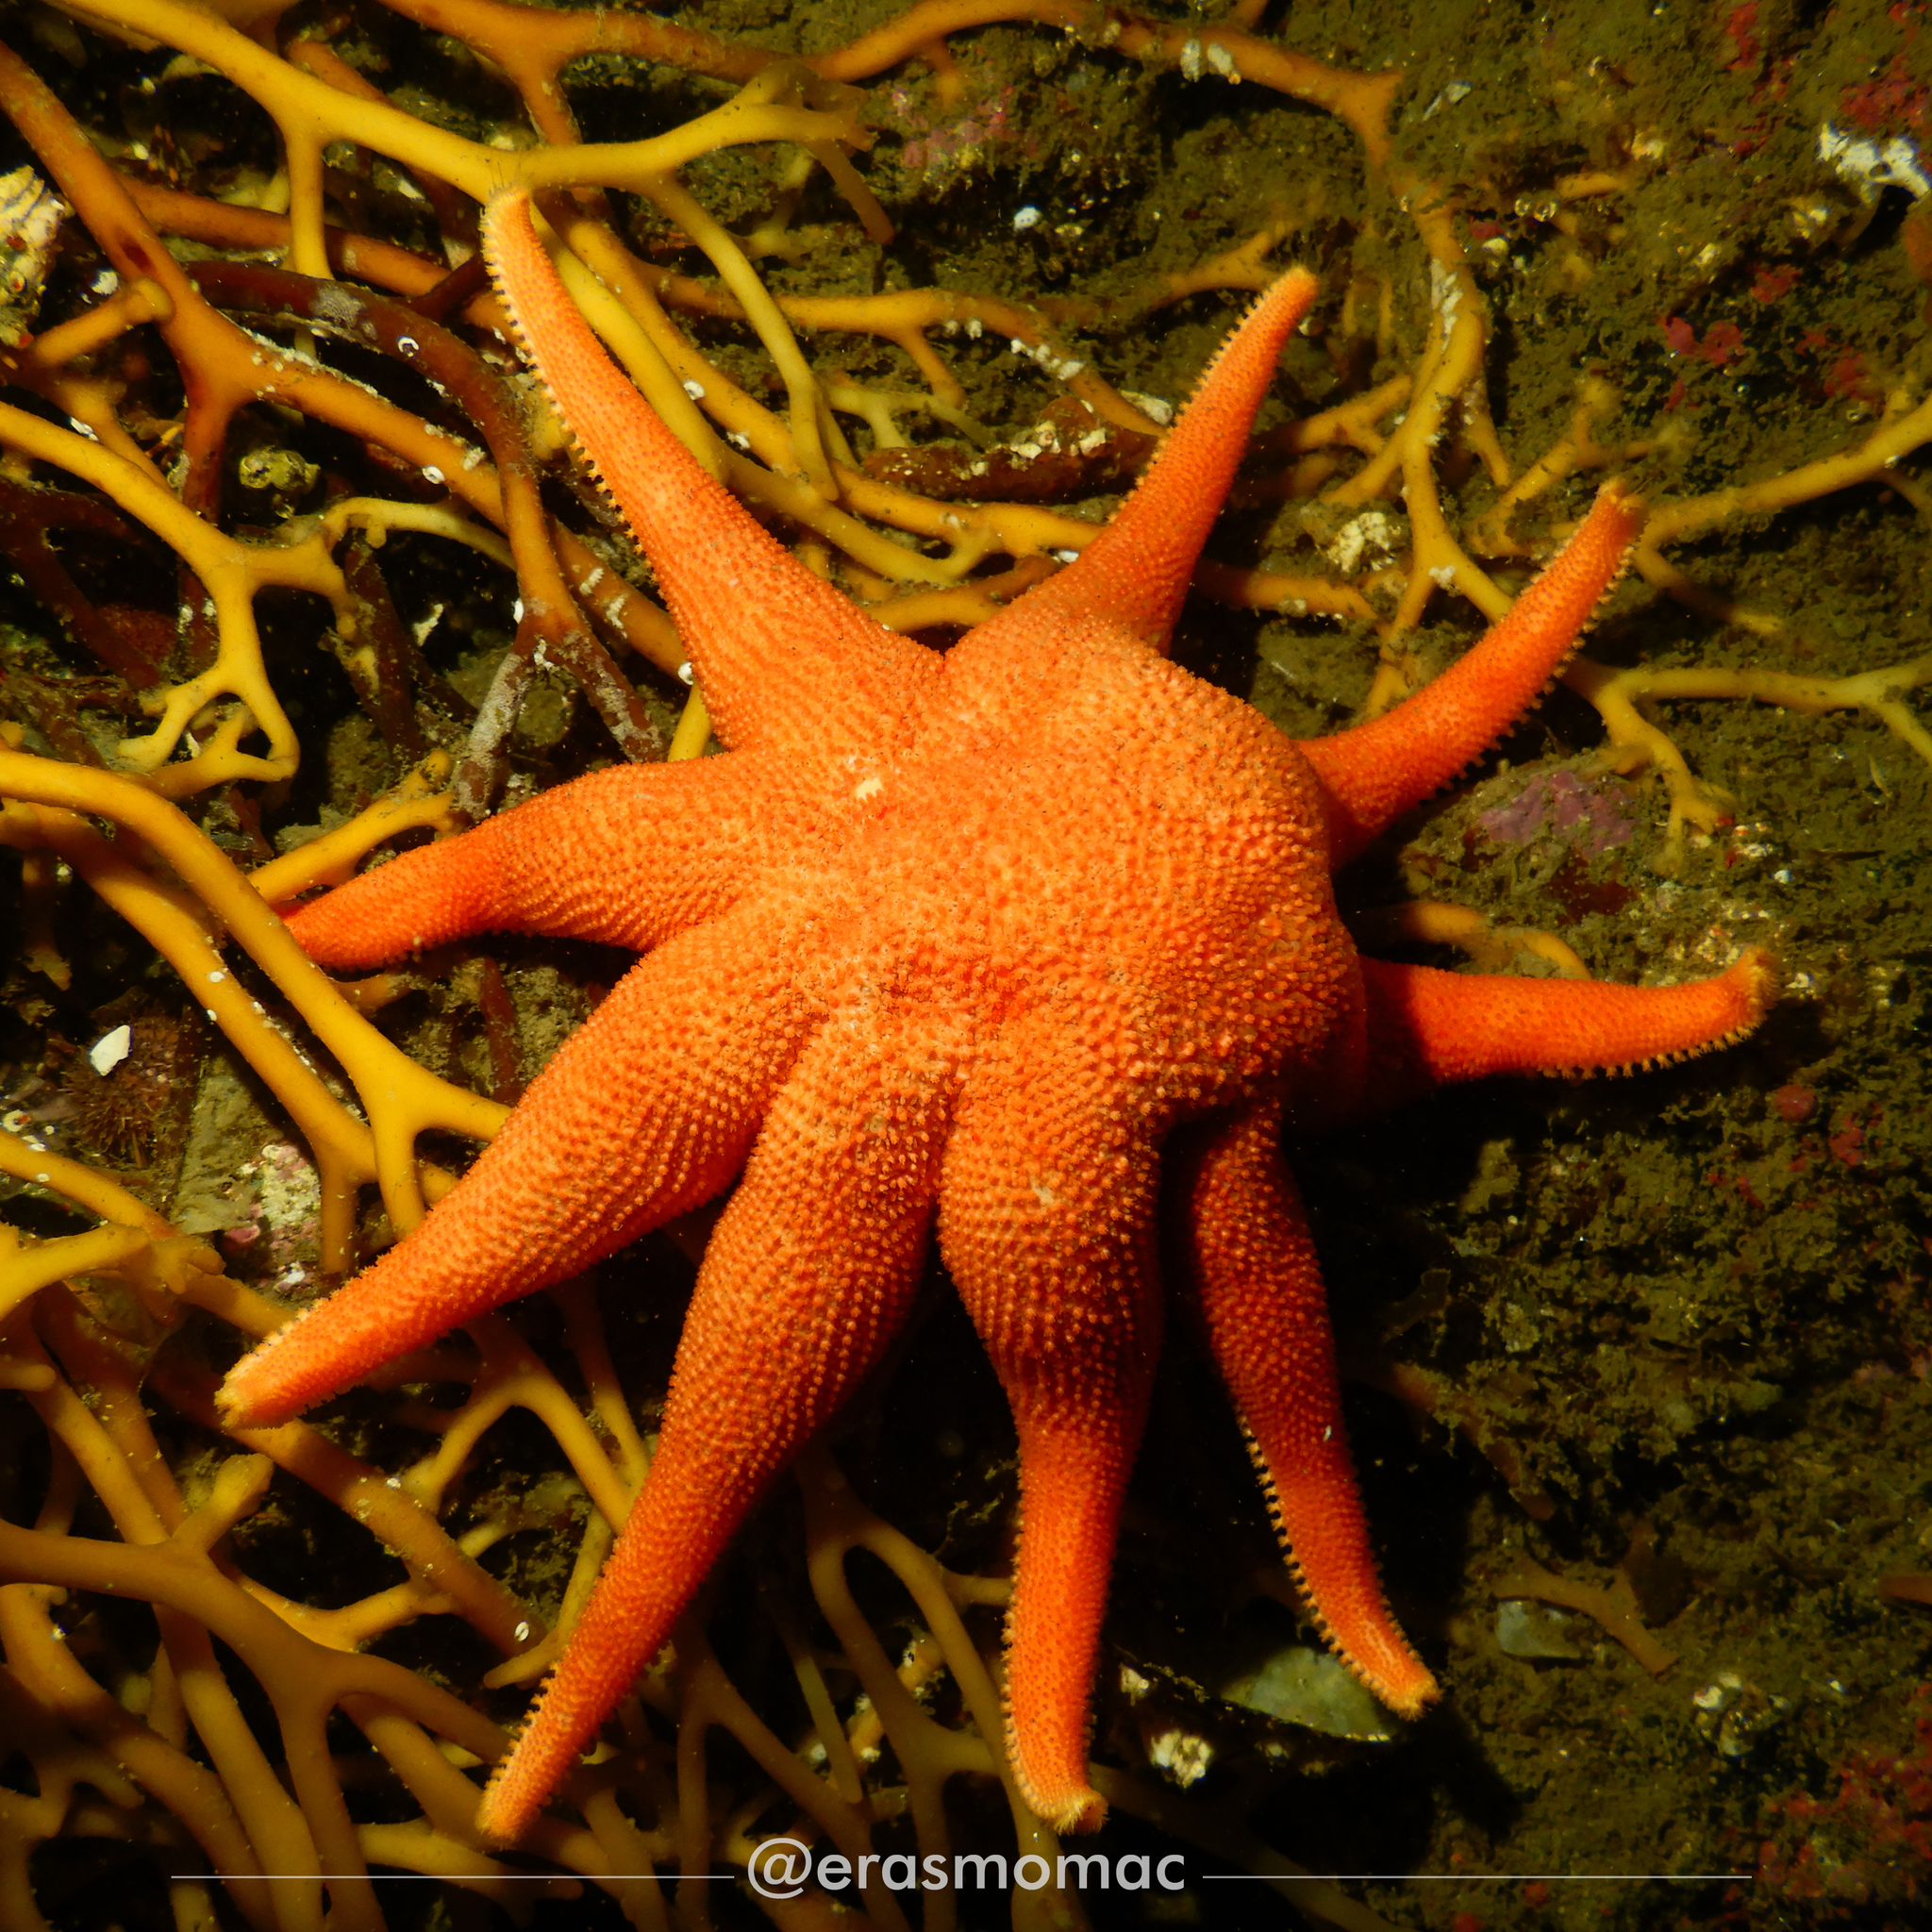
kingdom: Animalia
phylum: Echinodermata
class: Asteroidea
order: Valvatida
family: Solasteridae
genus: Solaster
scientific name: Solaster regularis
